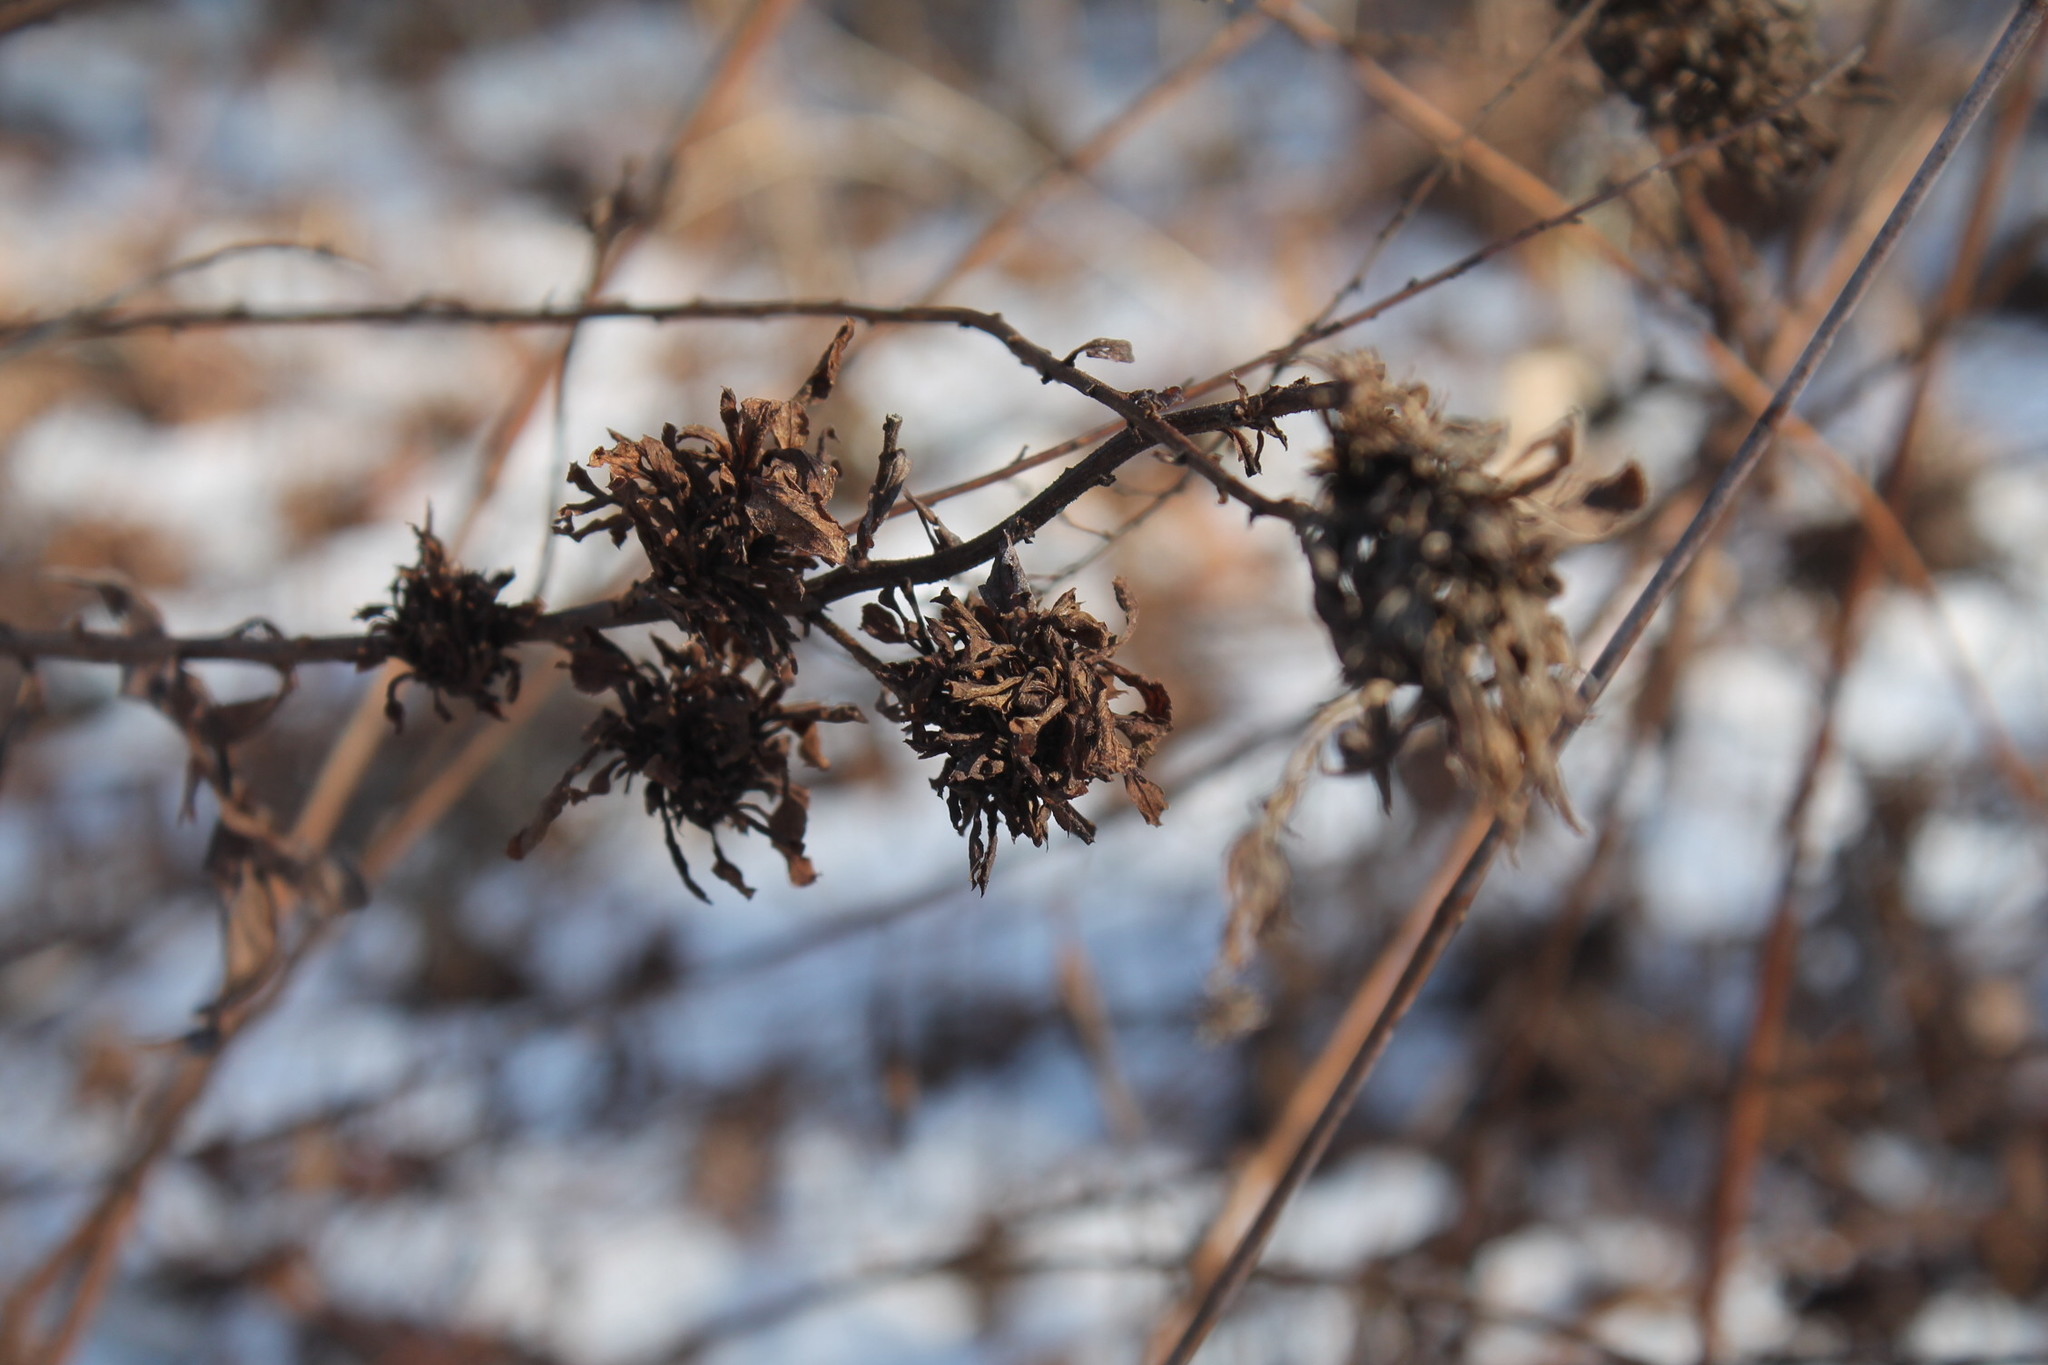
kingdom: Animalia
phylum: Arthropoda
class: Insecta
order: Diptera
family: Cecidomyiidae
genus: Rhopalomyia
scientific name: Rhopalomyia solidaginis
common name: Goldenrod bunch gall midge
